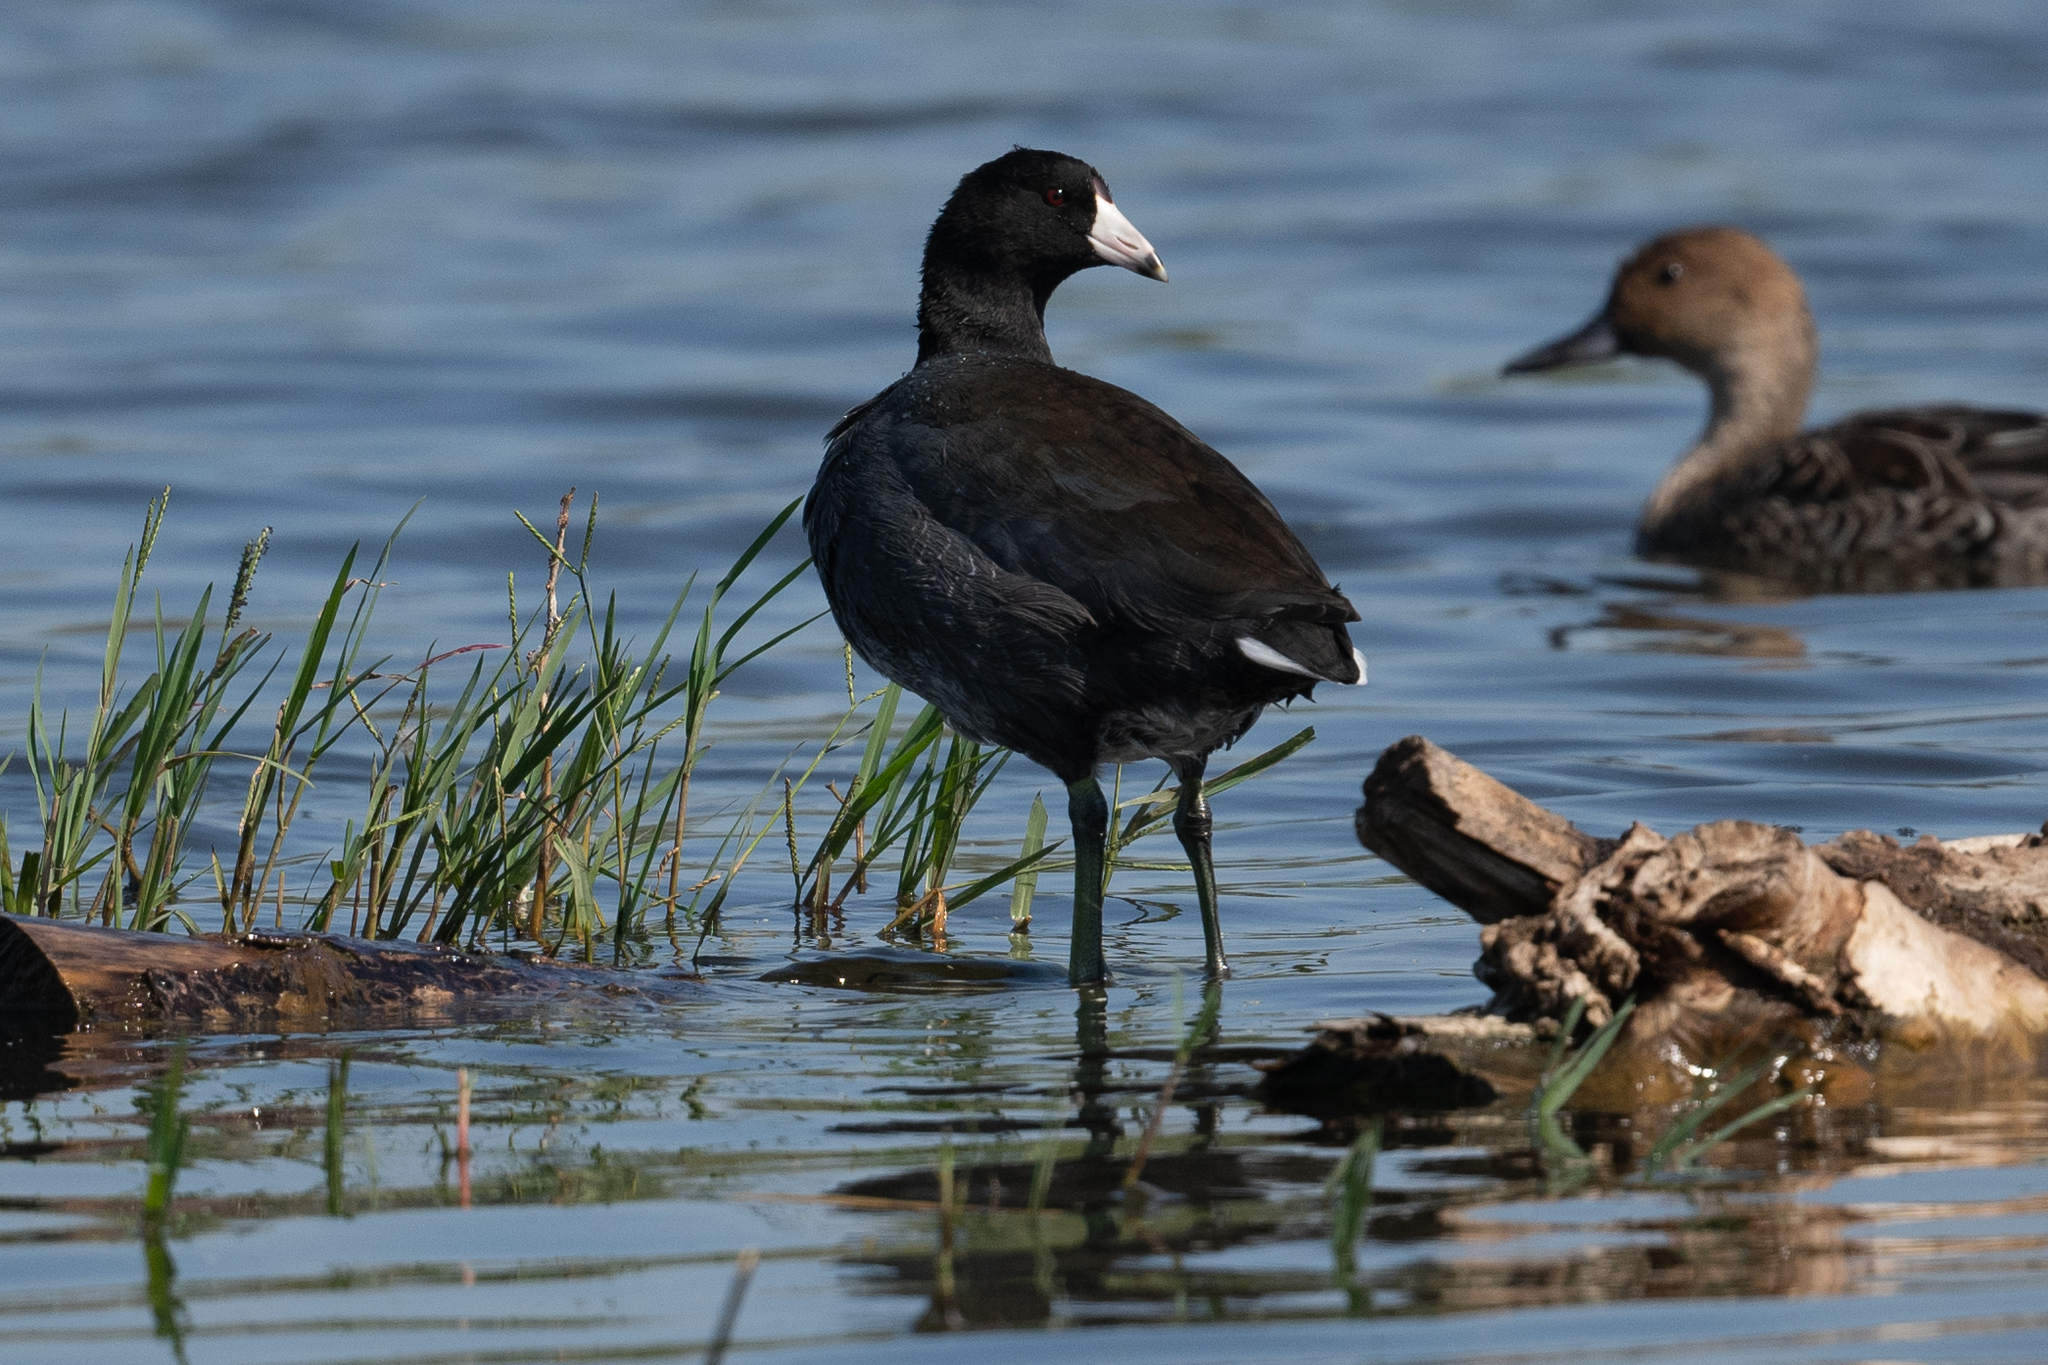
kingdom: Animalia
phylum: Chordata
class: Aves
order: Gruiformes
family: Rallidae
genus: Fulica
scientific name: Fulica americana
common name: American coot
